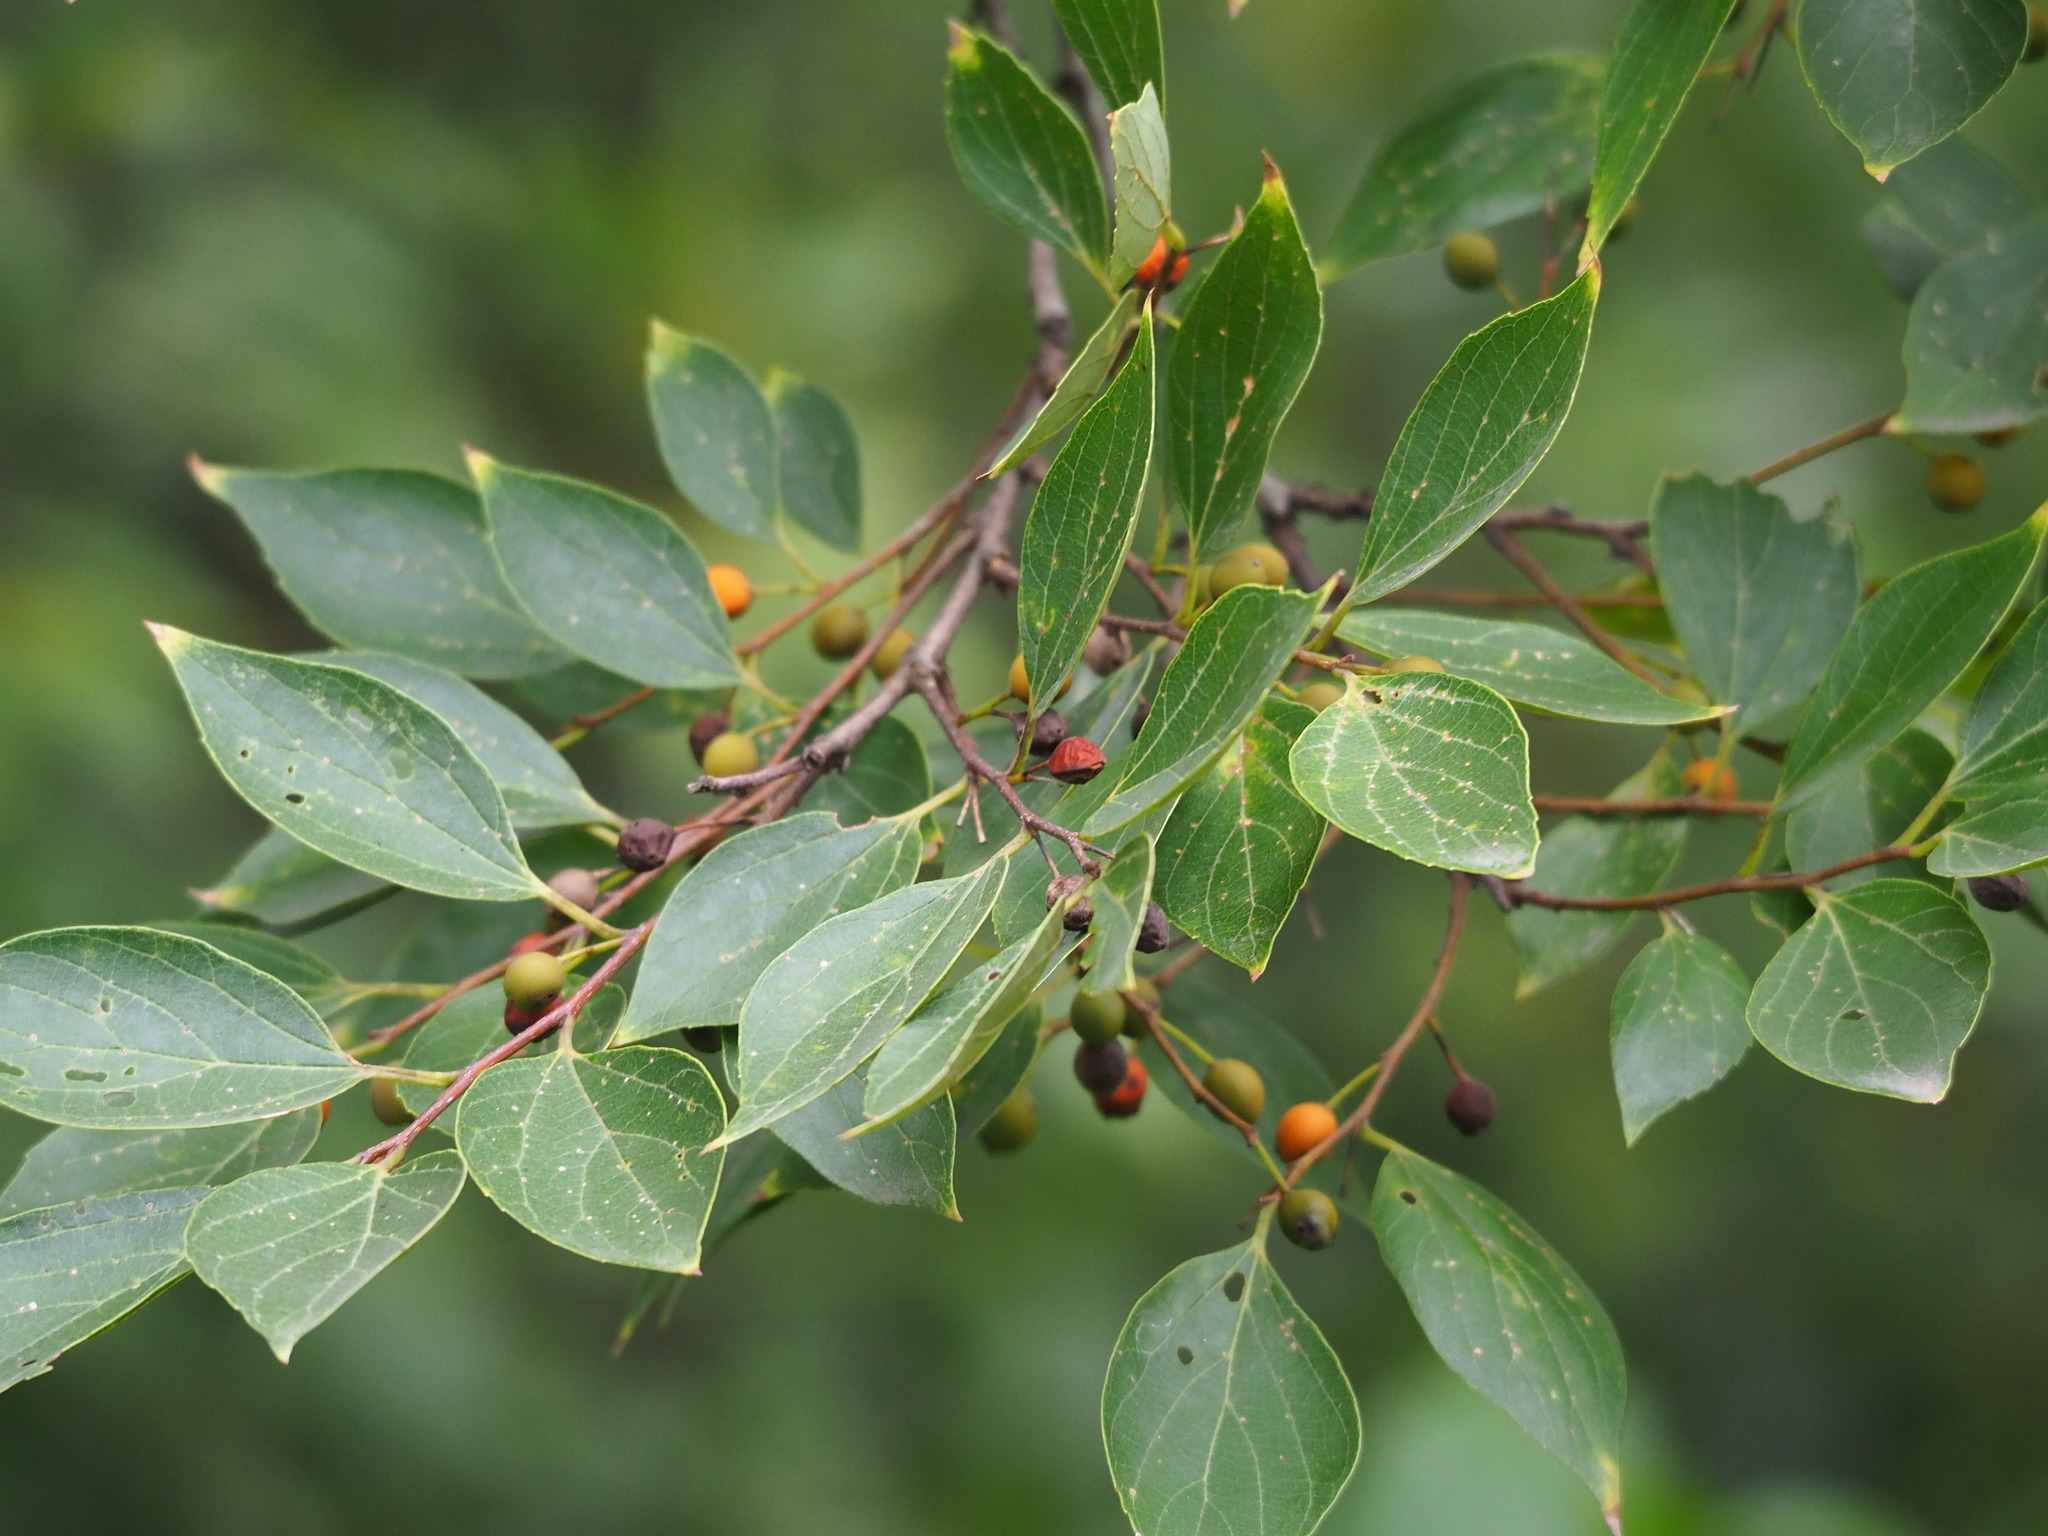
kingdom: Plantae
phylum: Tracheophyta
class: Magnoliopsida
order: Rosales
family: Cannabaceae
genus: Celtis
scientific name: Celtis sinensis
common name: Chinese hackberry
